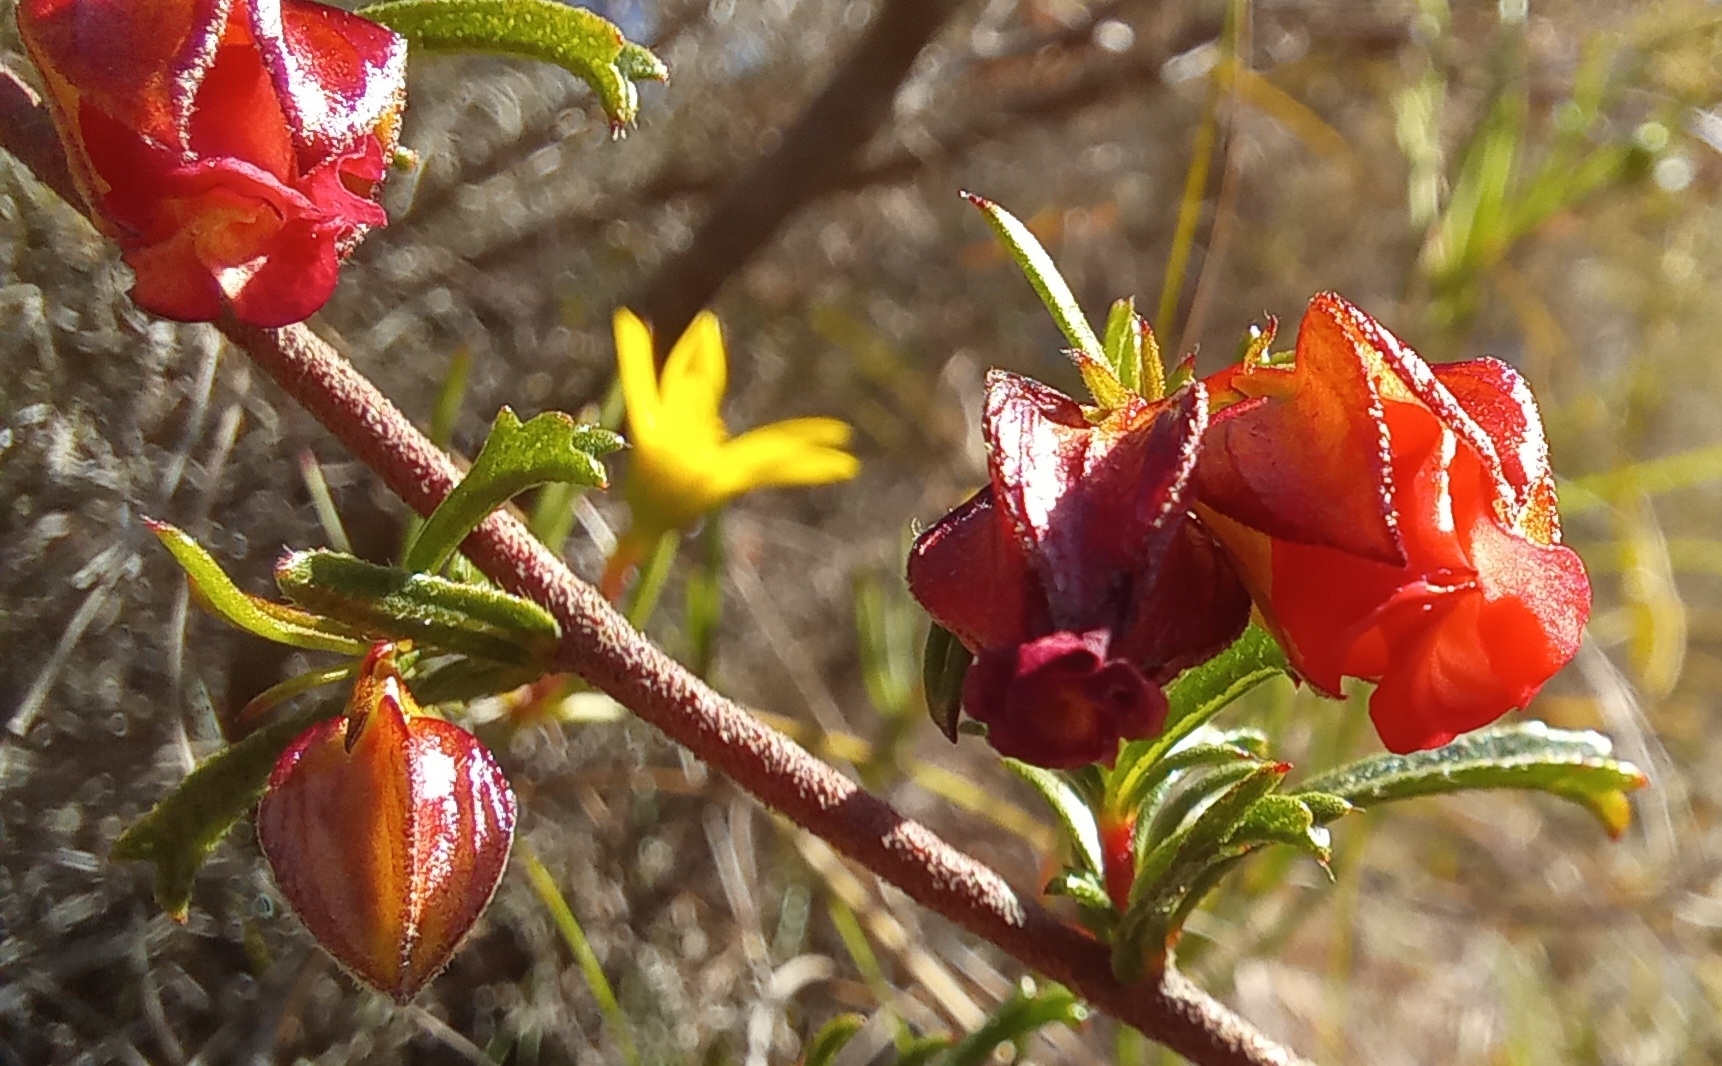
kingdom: Plantae
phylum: Tracheophyta
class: Magnoliopsida
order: Malvales
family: Malvaceae
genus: Hermannia
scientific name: Hermannia angularis
